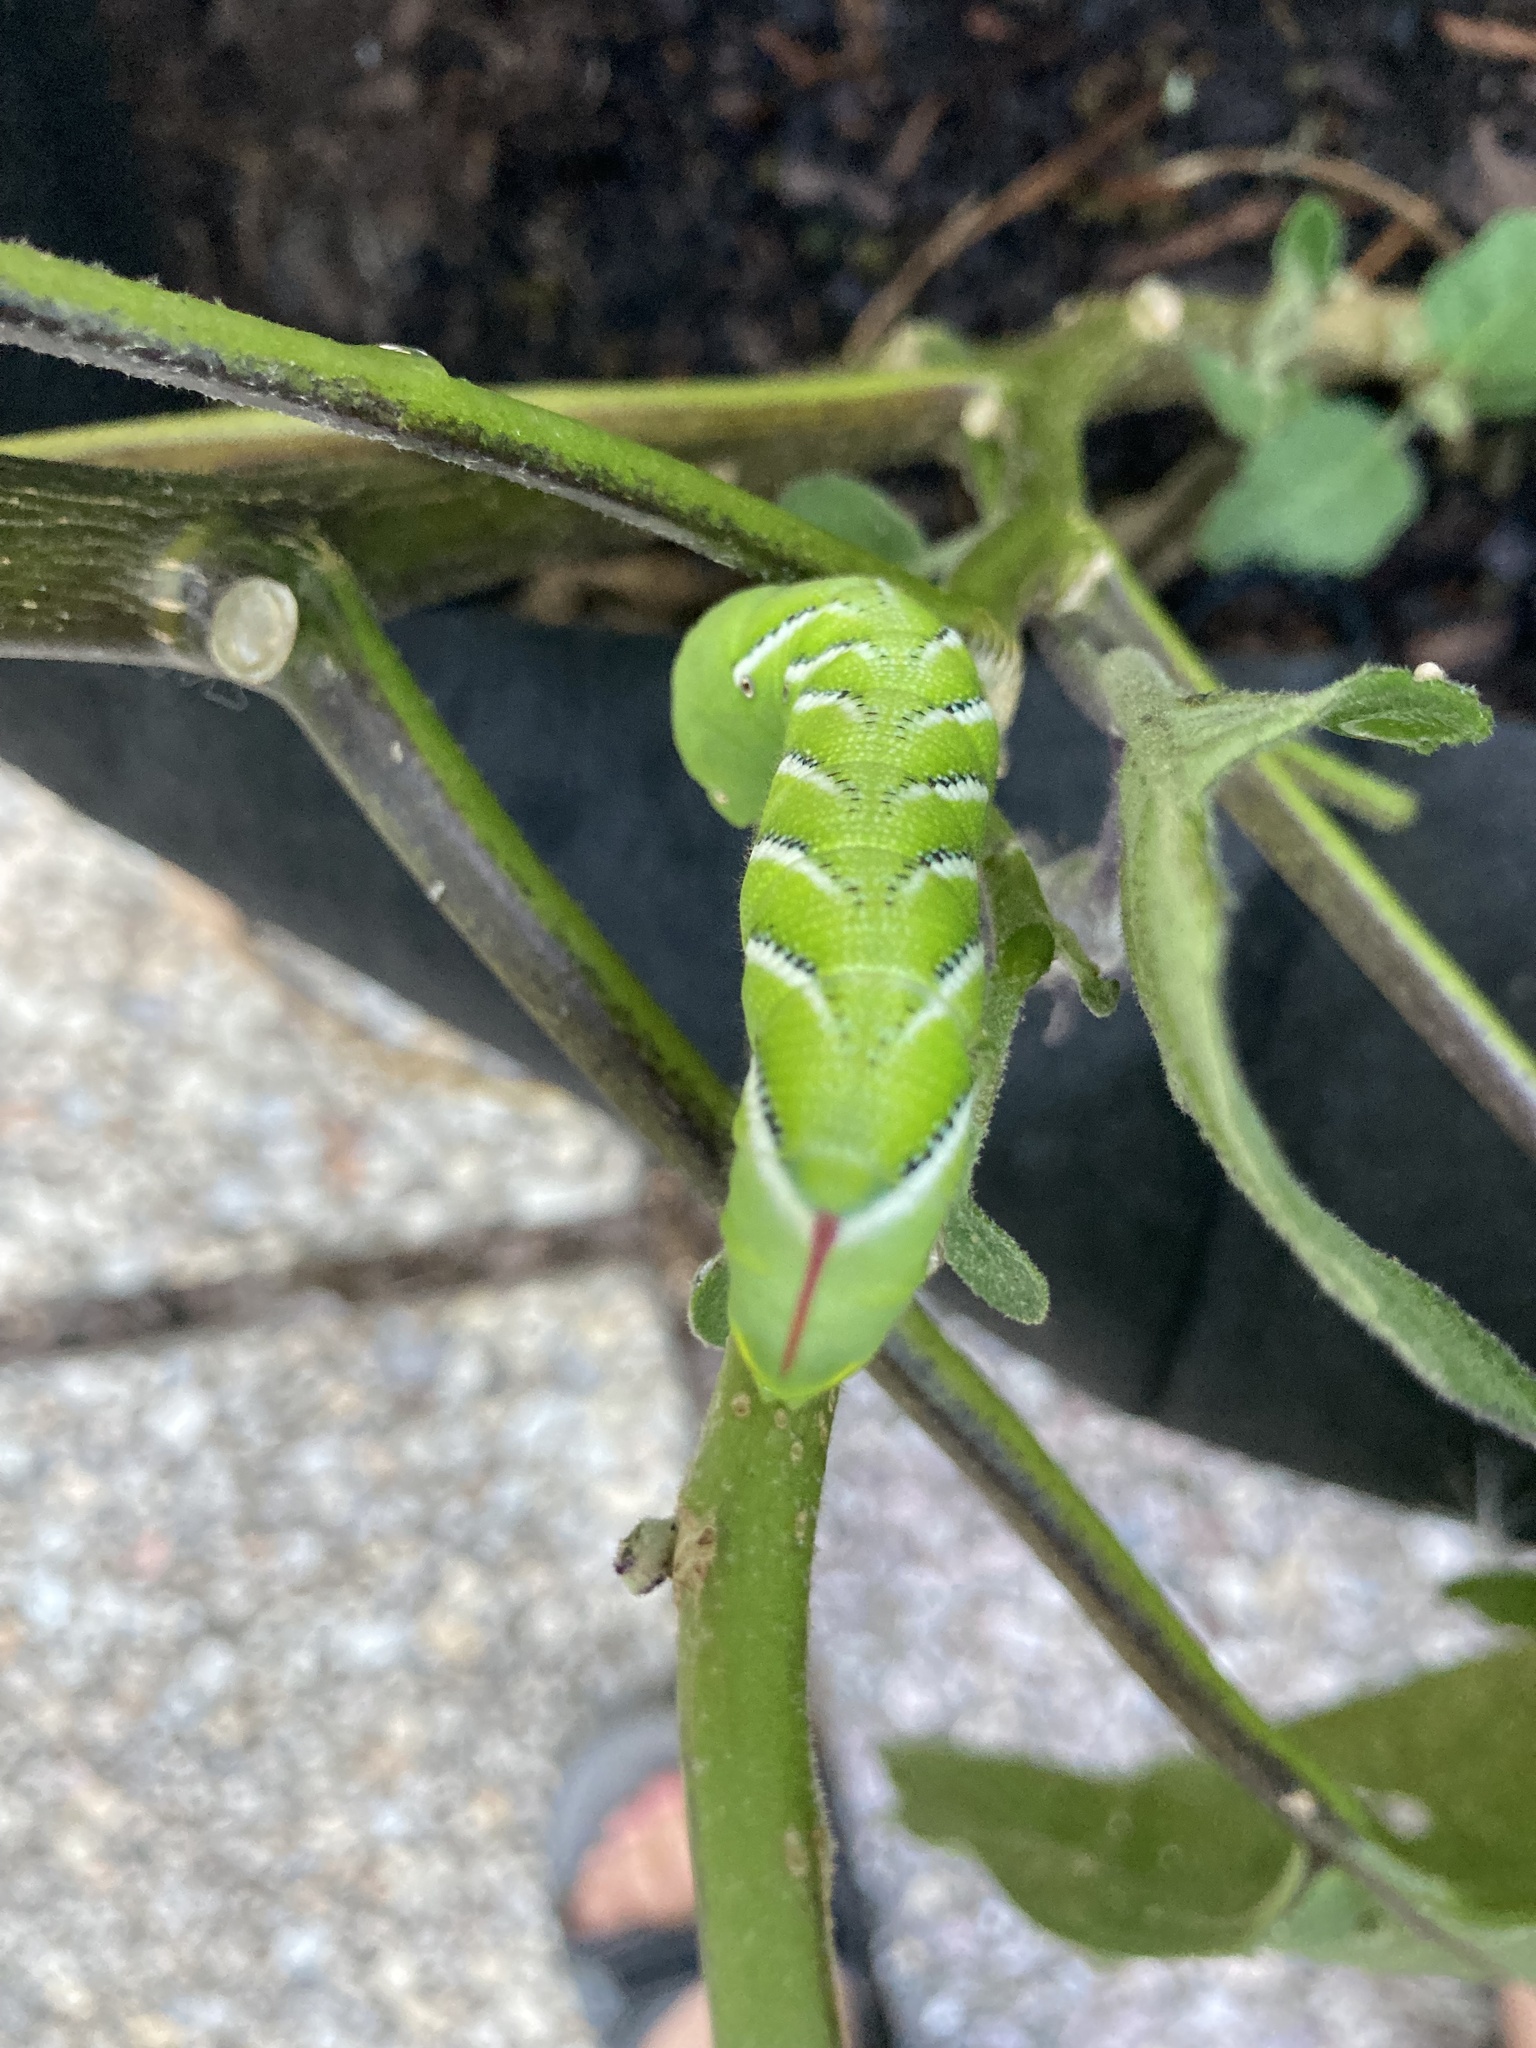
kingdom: Animalia
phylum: Arthropoda
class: Insecta
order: Lepidoptera
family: Sphingidae
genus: Manduca
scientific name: Manduca sexta
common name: Carolina sphinx
